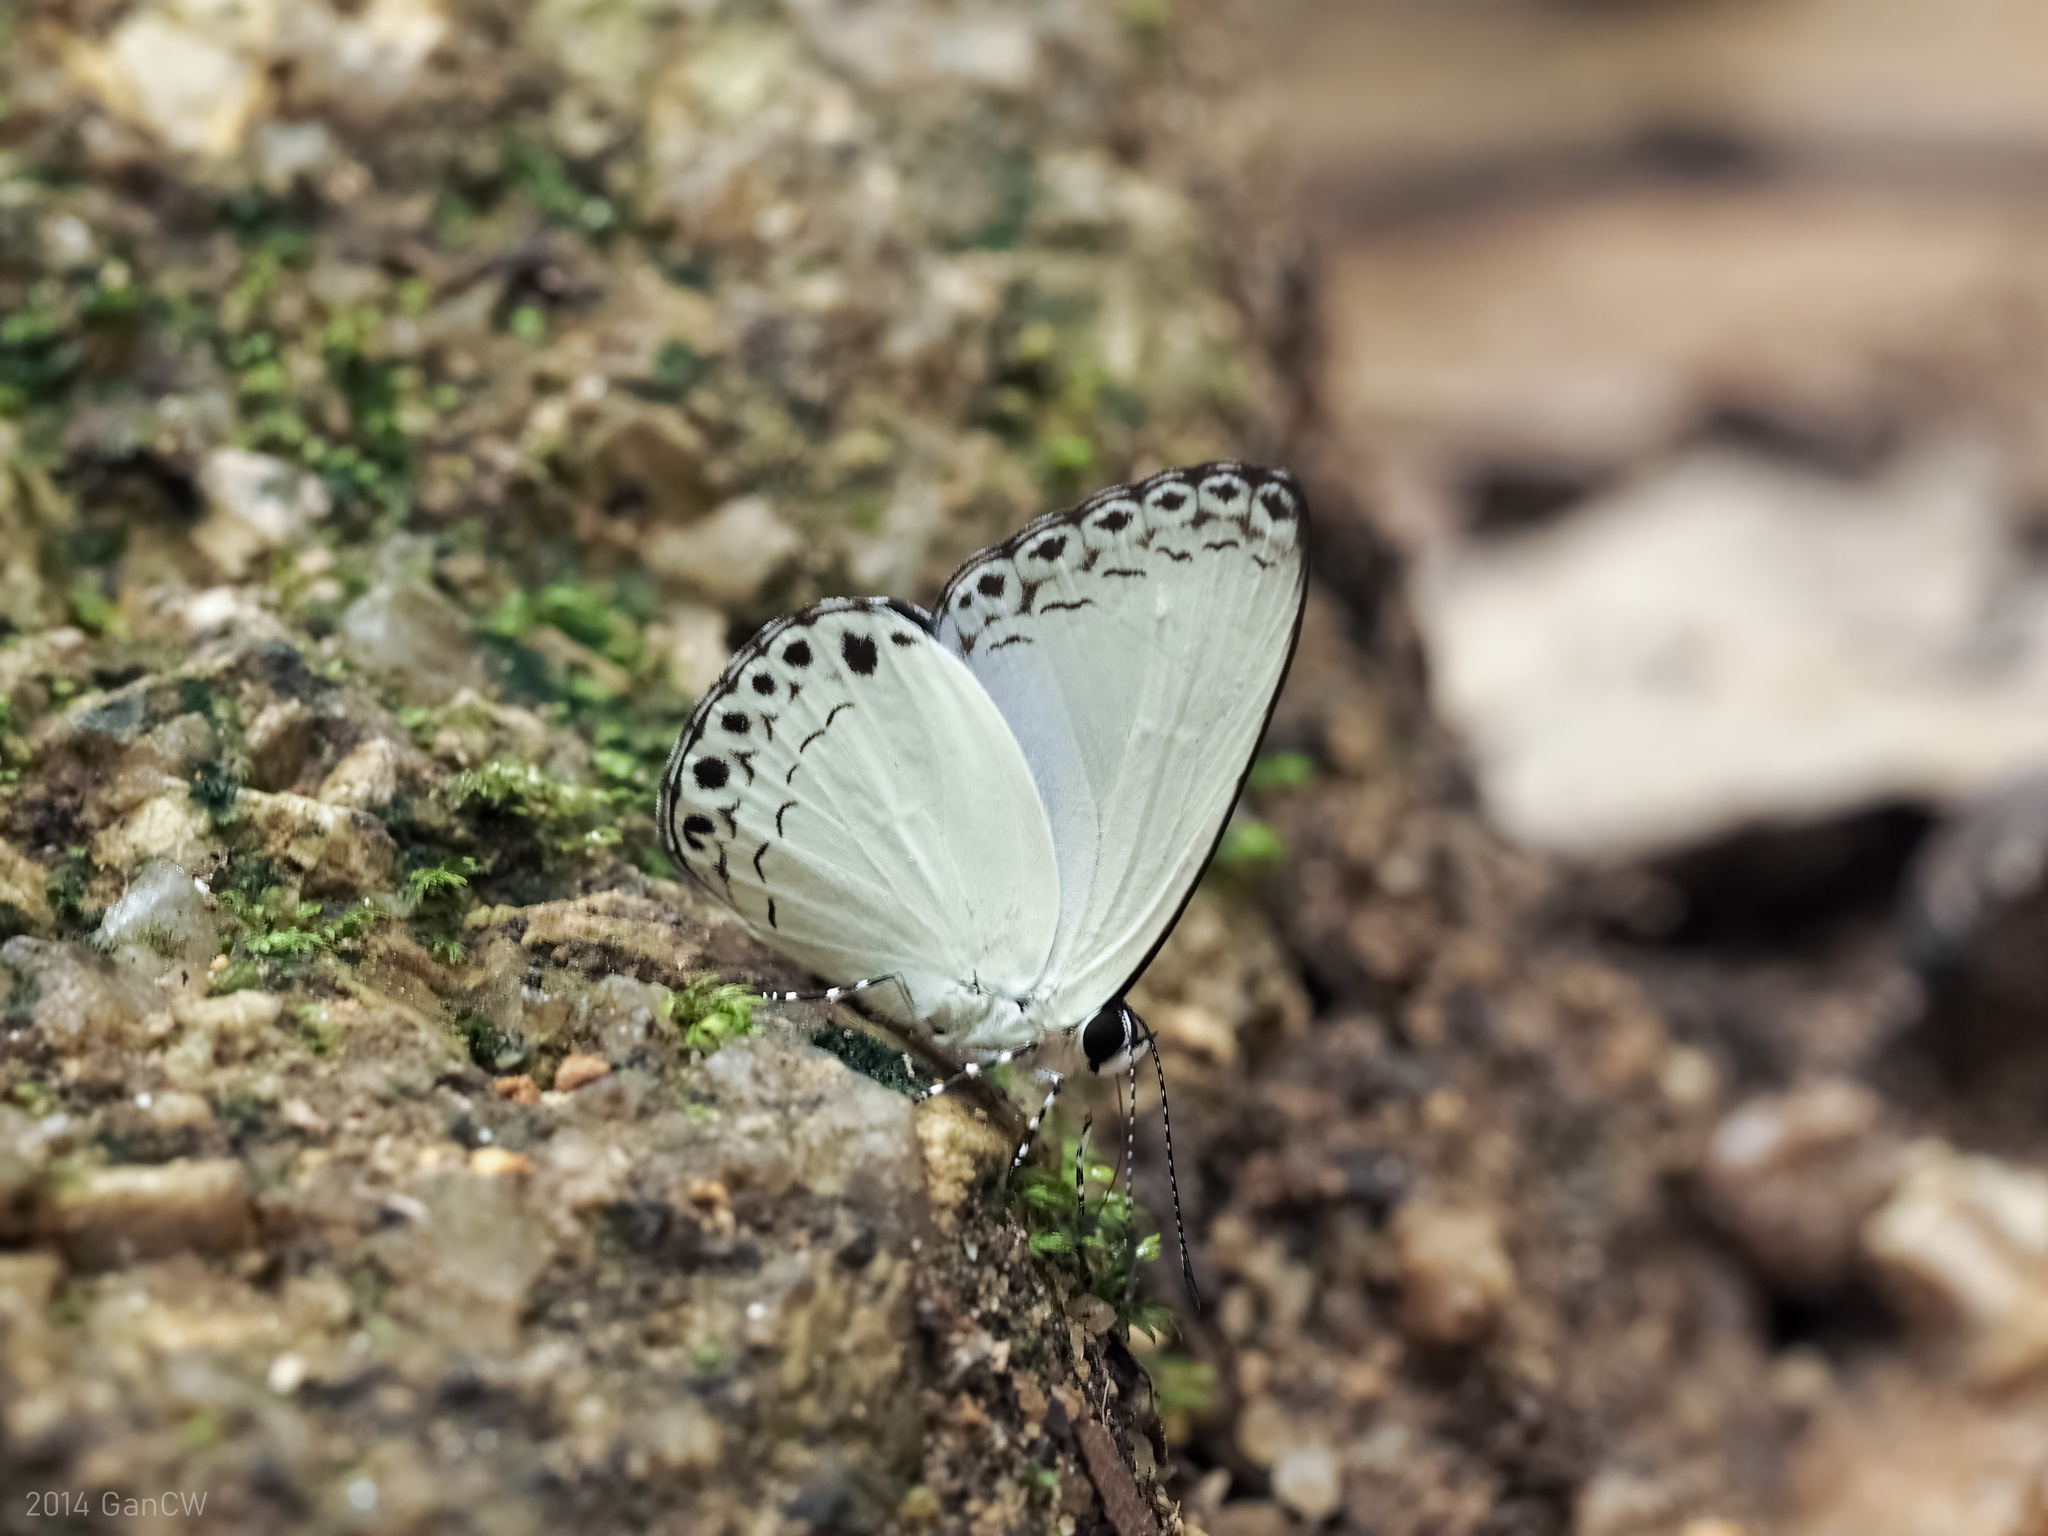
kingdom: Animalia
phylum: Arthropoda
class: Insecta
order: Lepidoptera
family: Lycaenidae
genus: Lycaenopsis
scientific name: Lycaenopsis haraldus
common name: Felder's hedge blue
